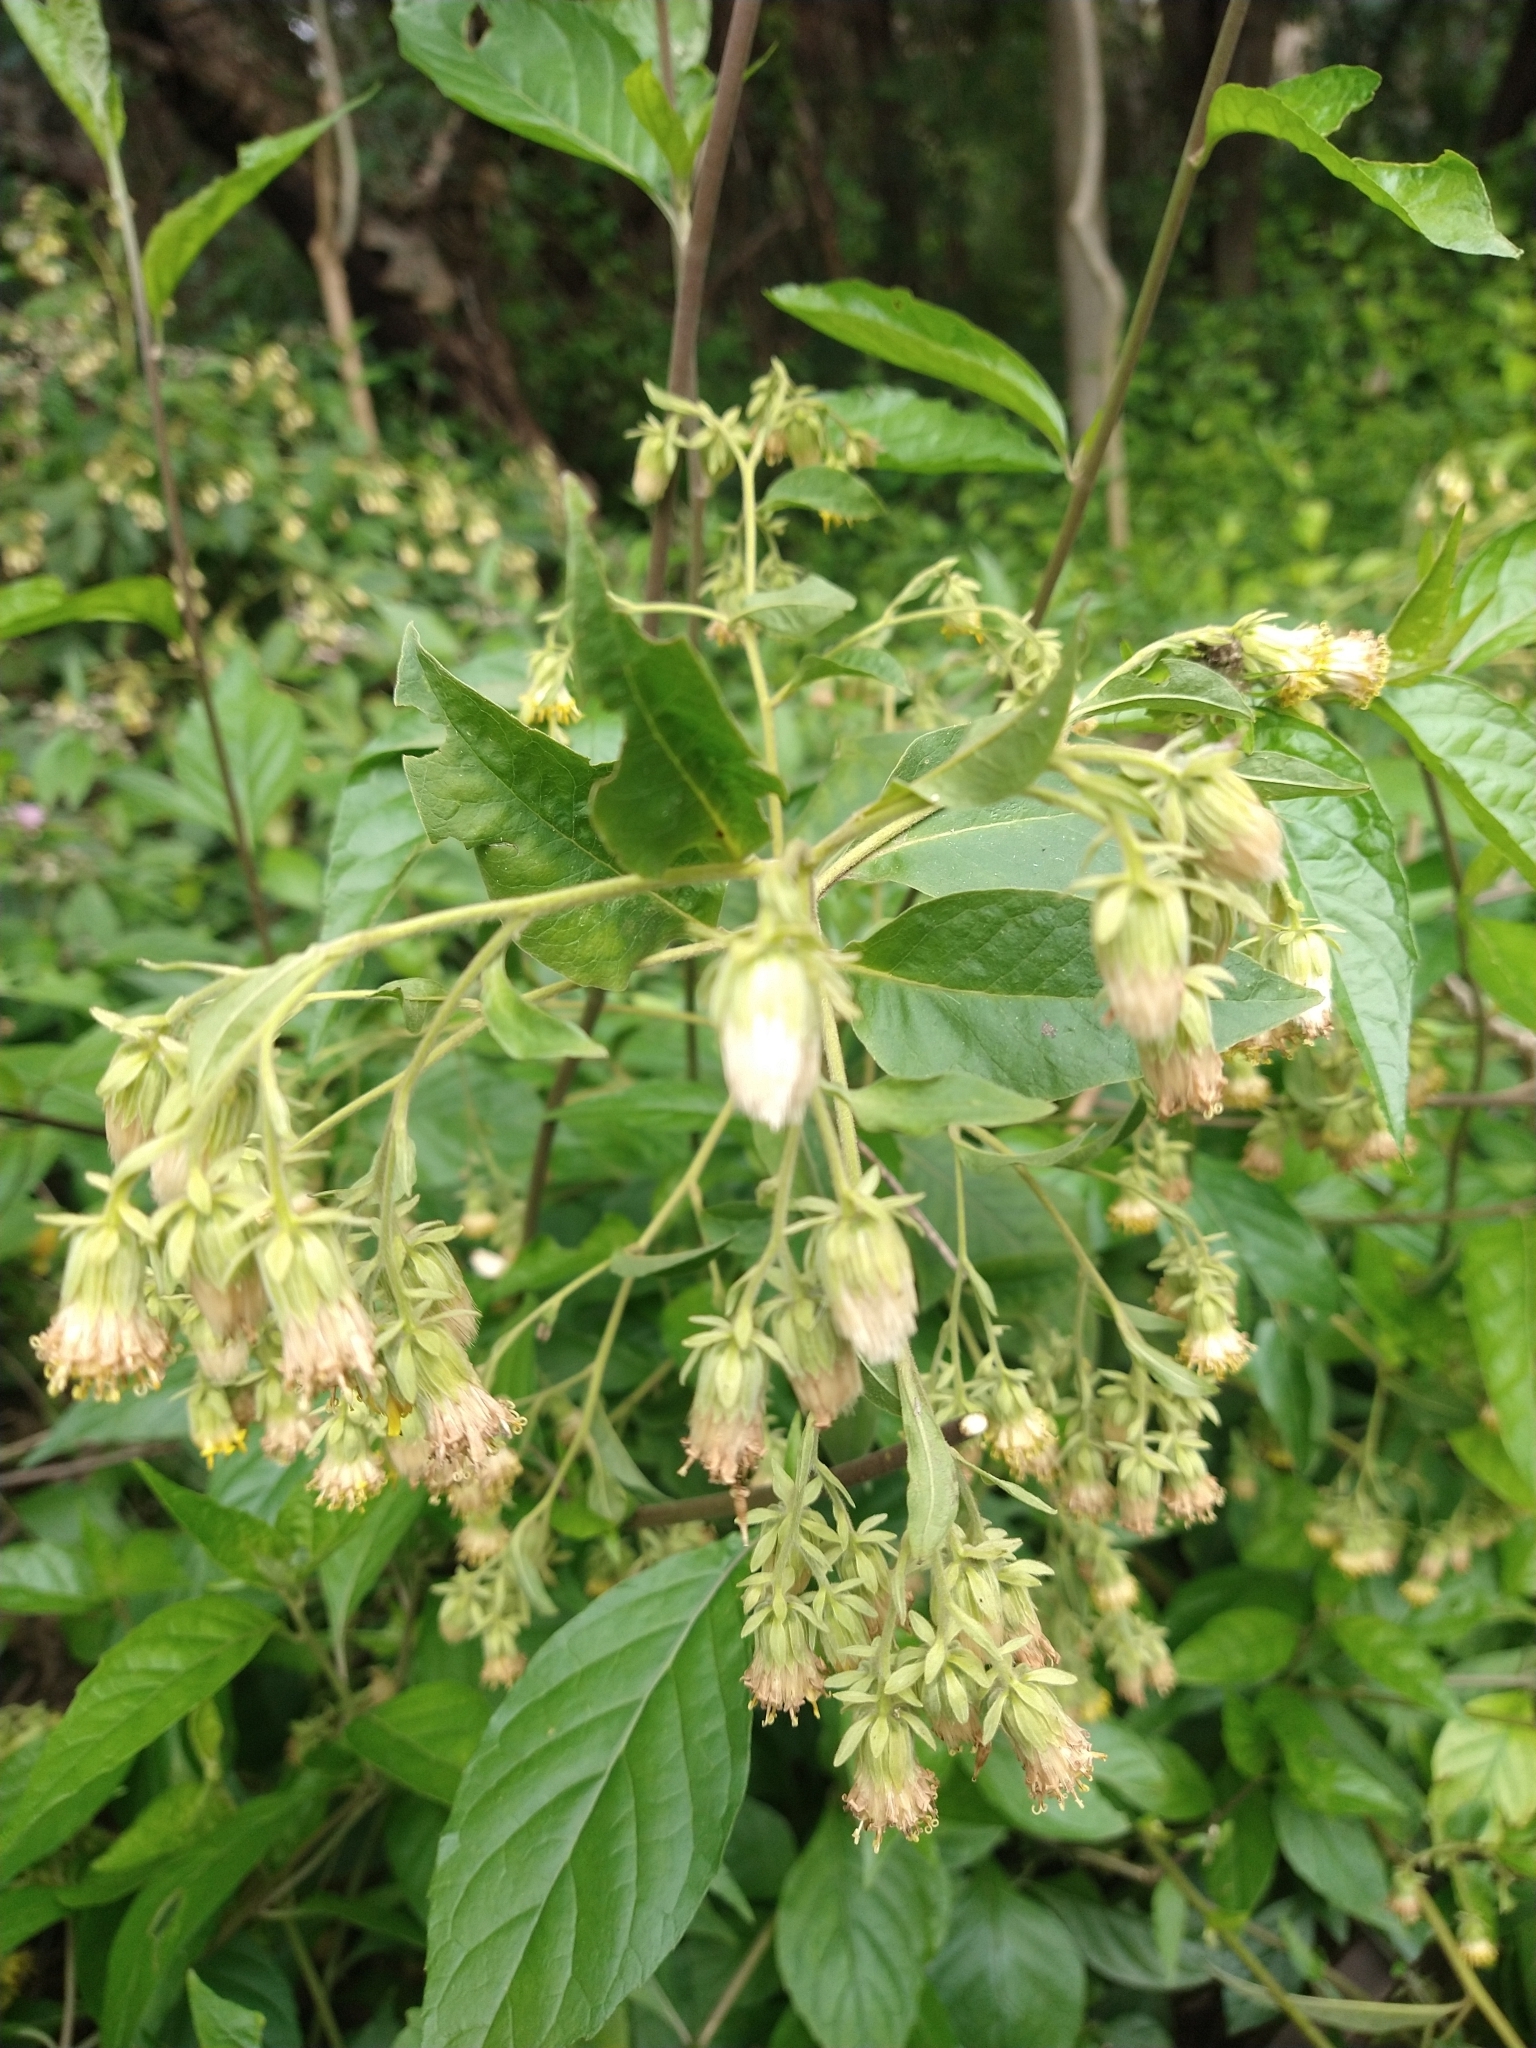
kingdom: Plantae
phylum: Tracheophyta
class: Magnoliopsida
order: Asterales
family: Asteraceae
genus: Trixis
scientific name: Trixis praestans
